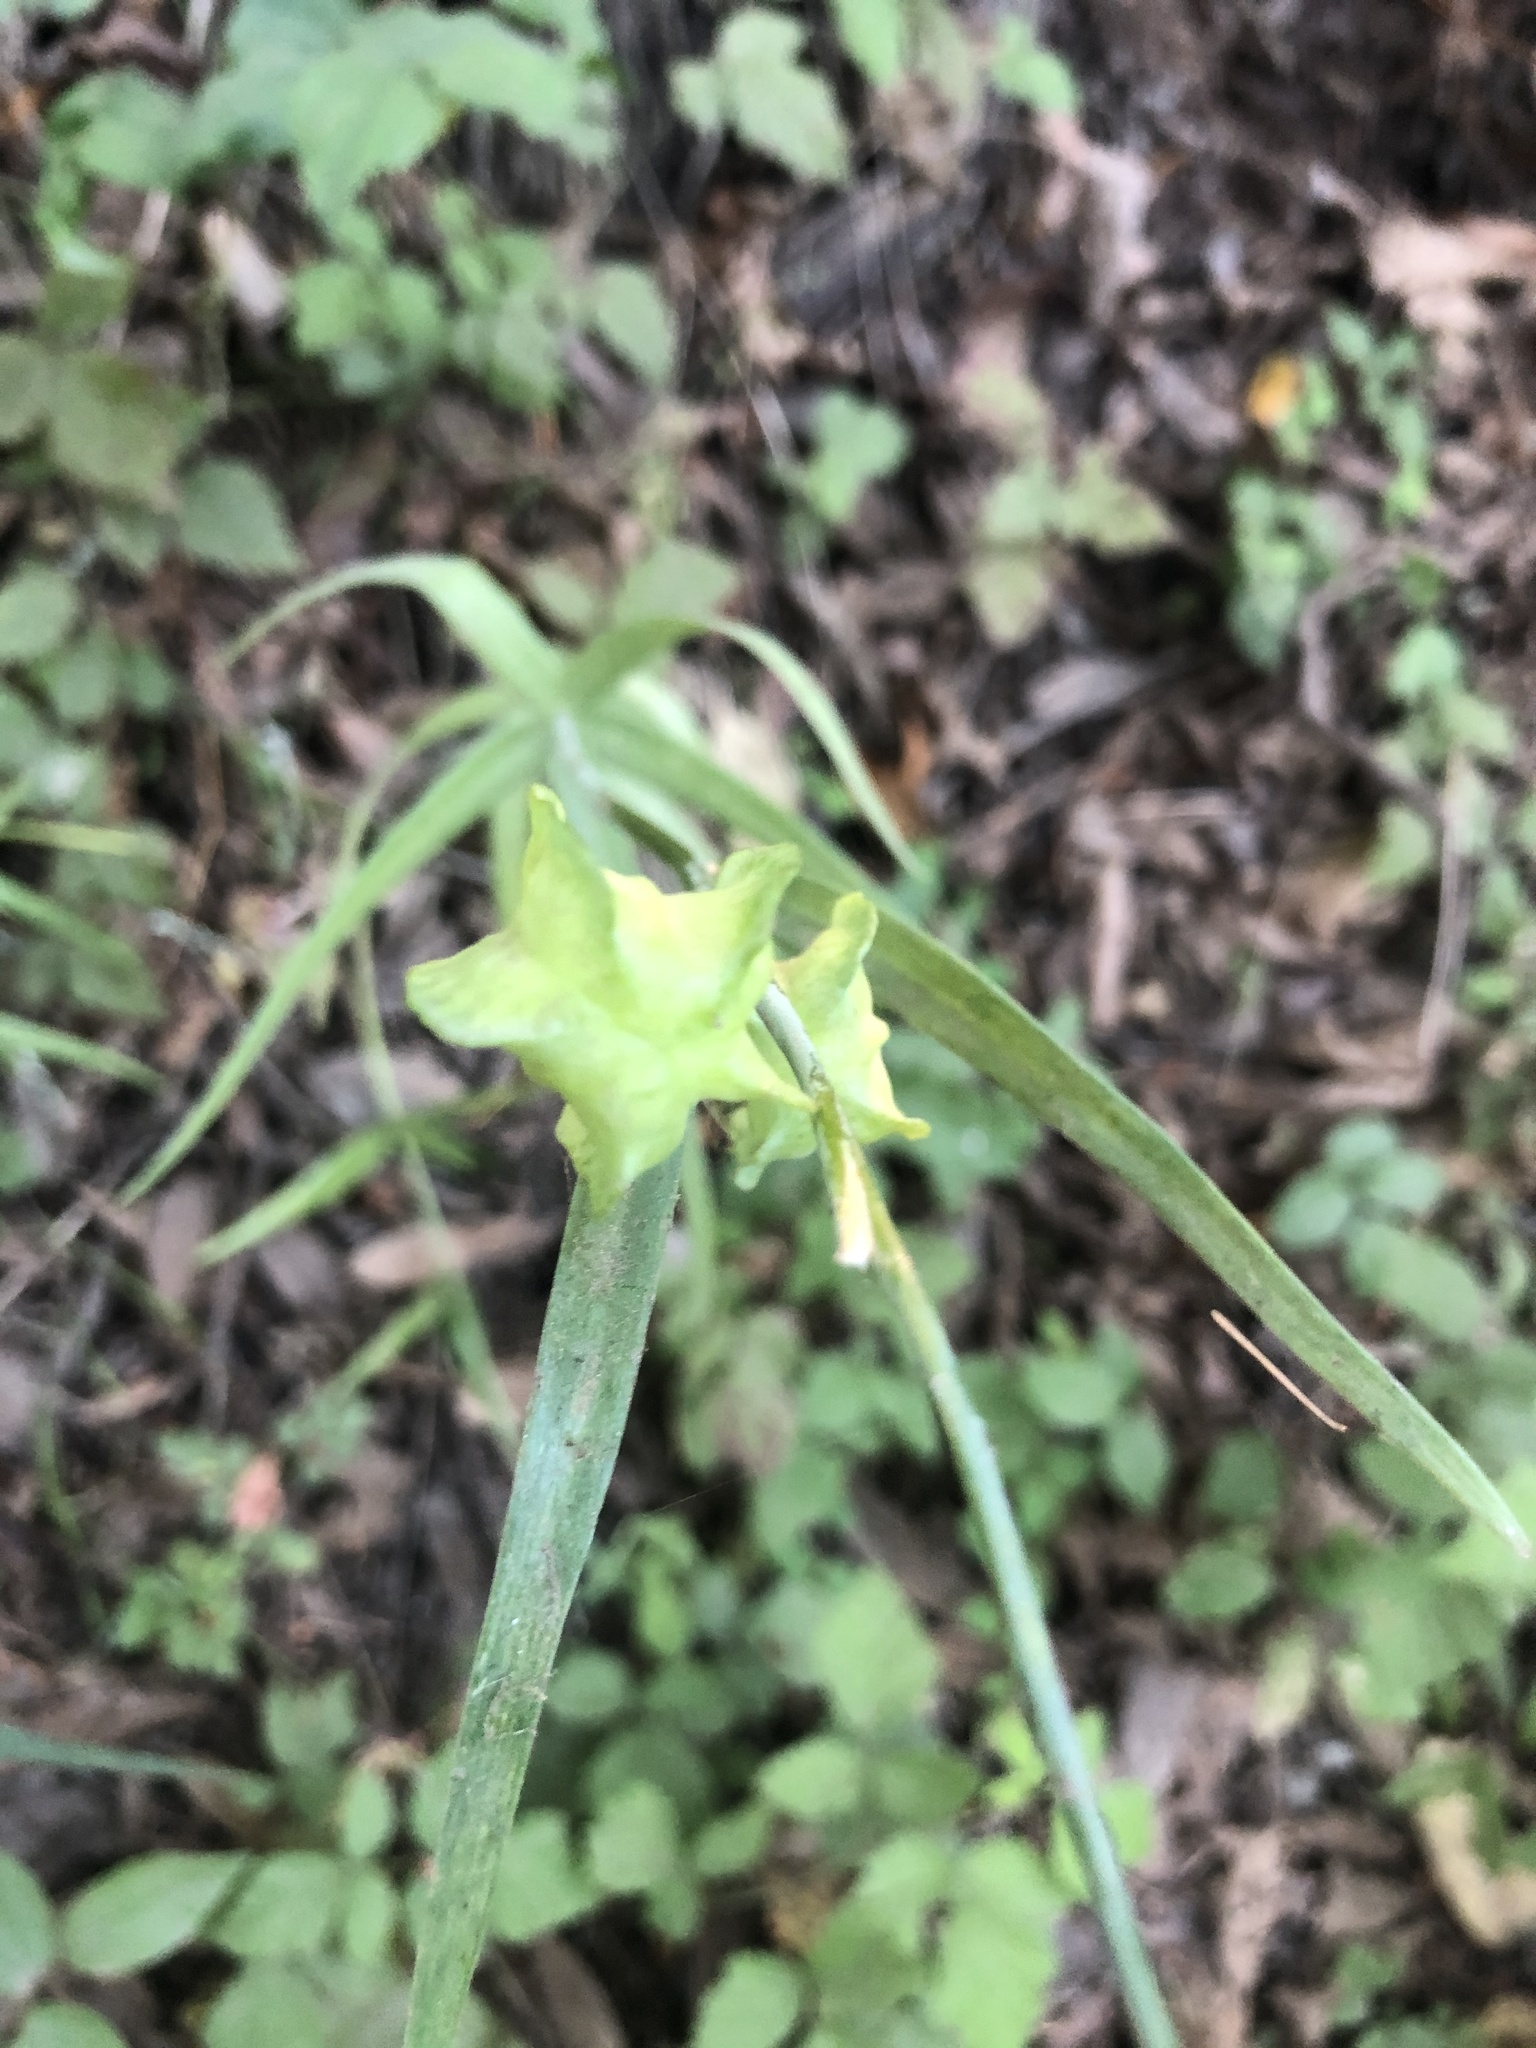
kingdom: Plantae
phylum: Tracheophyta
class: Liliopsida
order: Liliales
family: Liliaceae
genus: Fritillaria
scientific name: Fritillaria affinis
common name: Ojai fritillary
